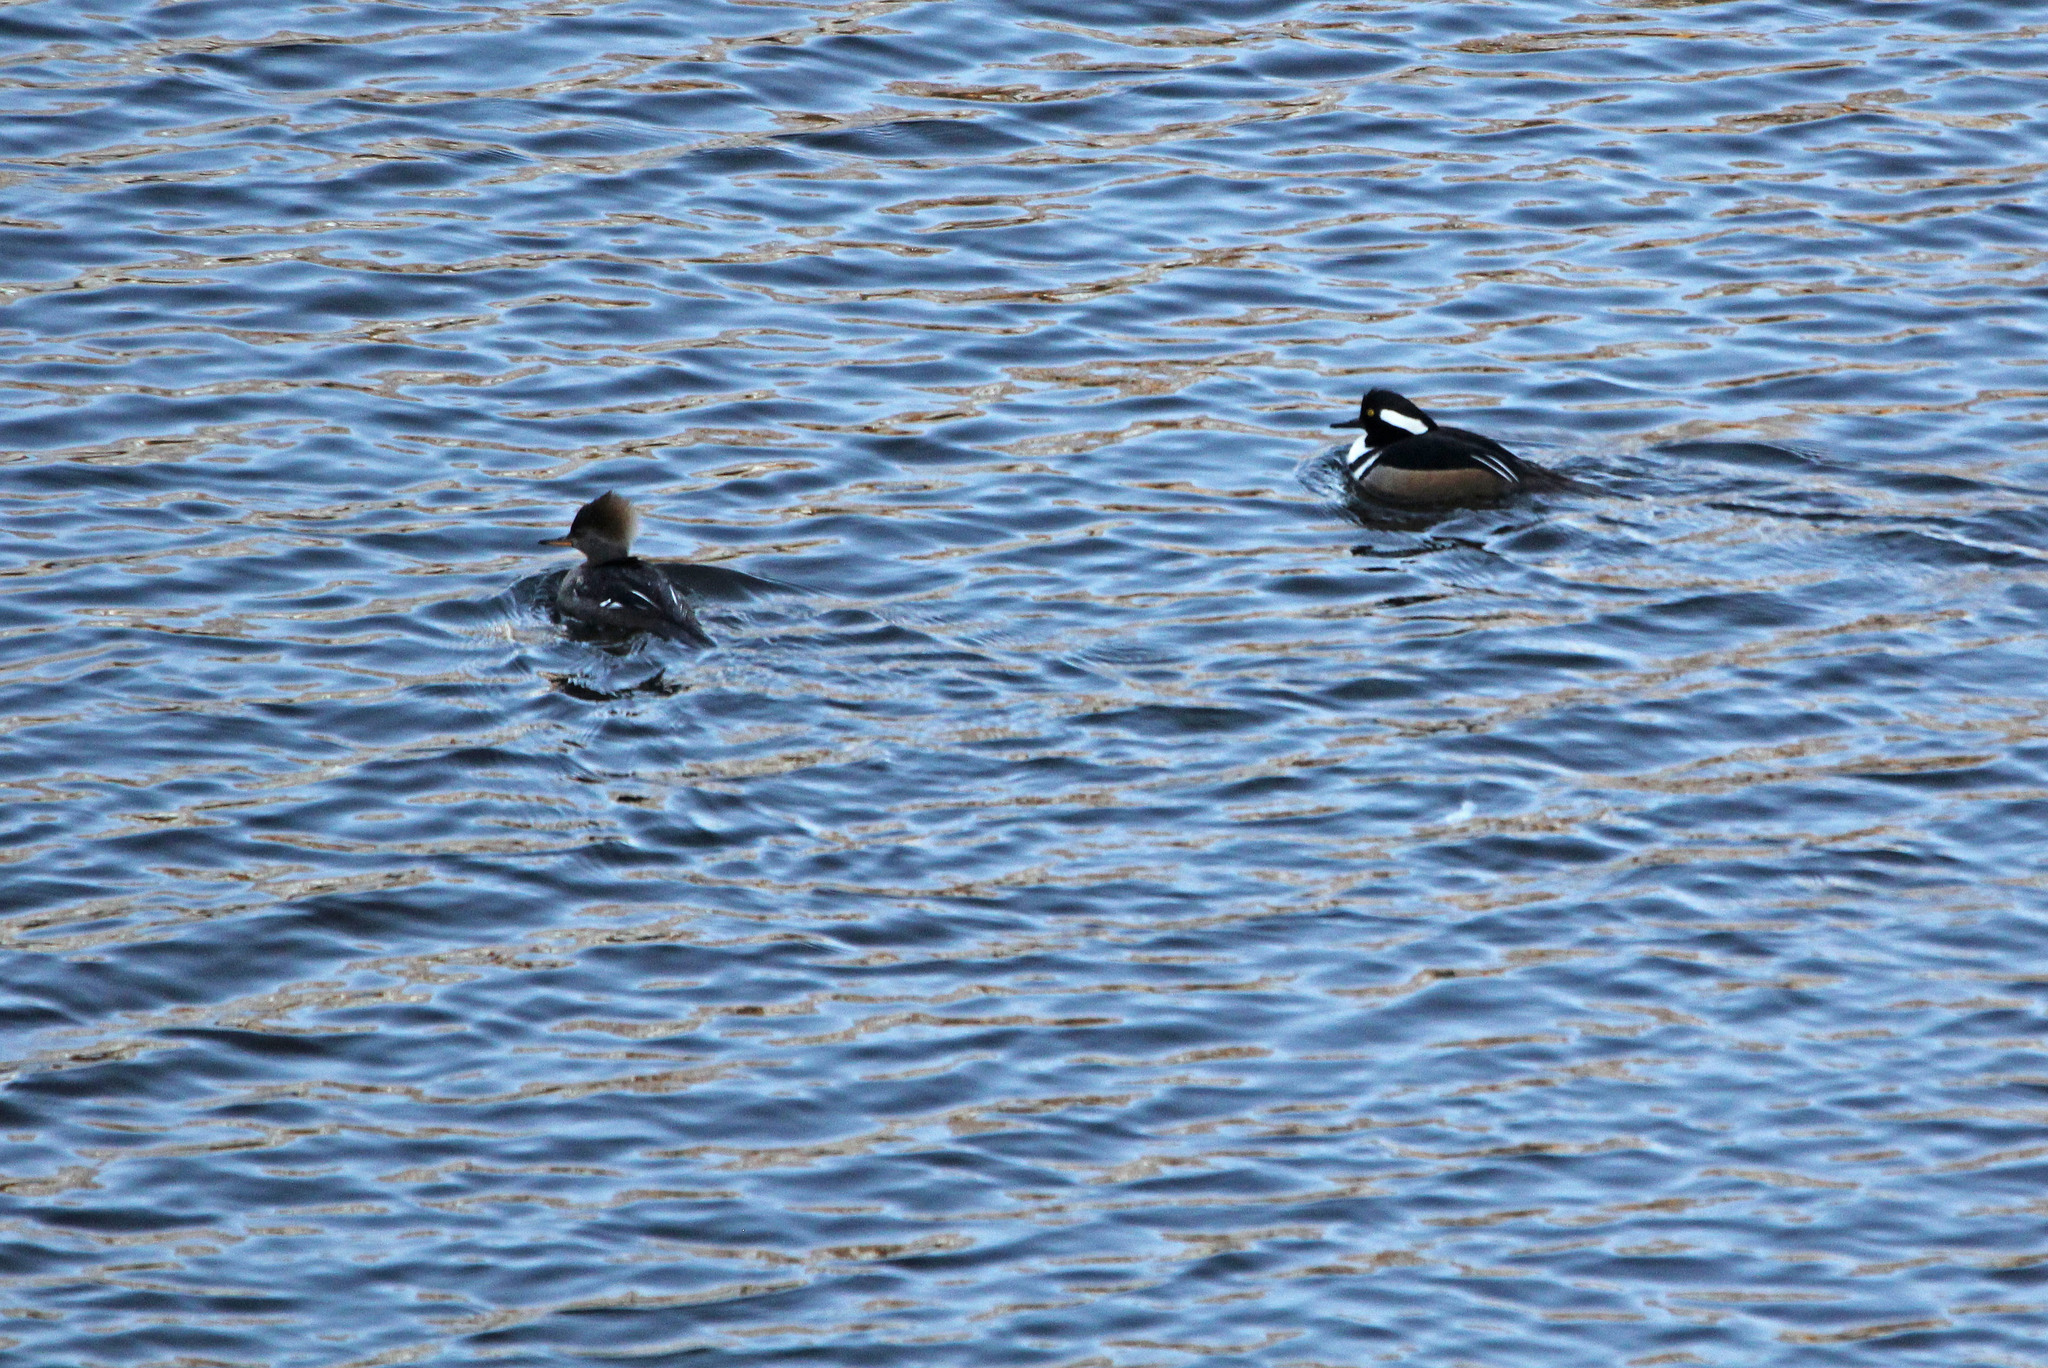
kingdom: Animalia
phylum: Chordata
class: Aves
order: Anseriformes
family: Anatidae
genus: Lophodytes
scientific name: Lophodytes cucullatus
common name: Hooded merganser
